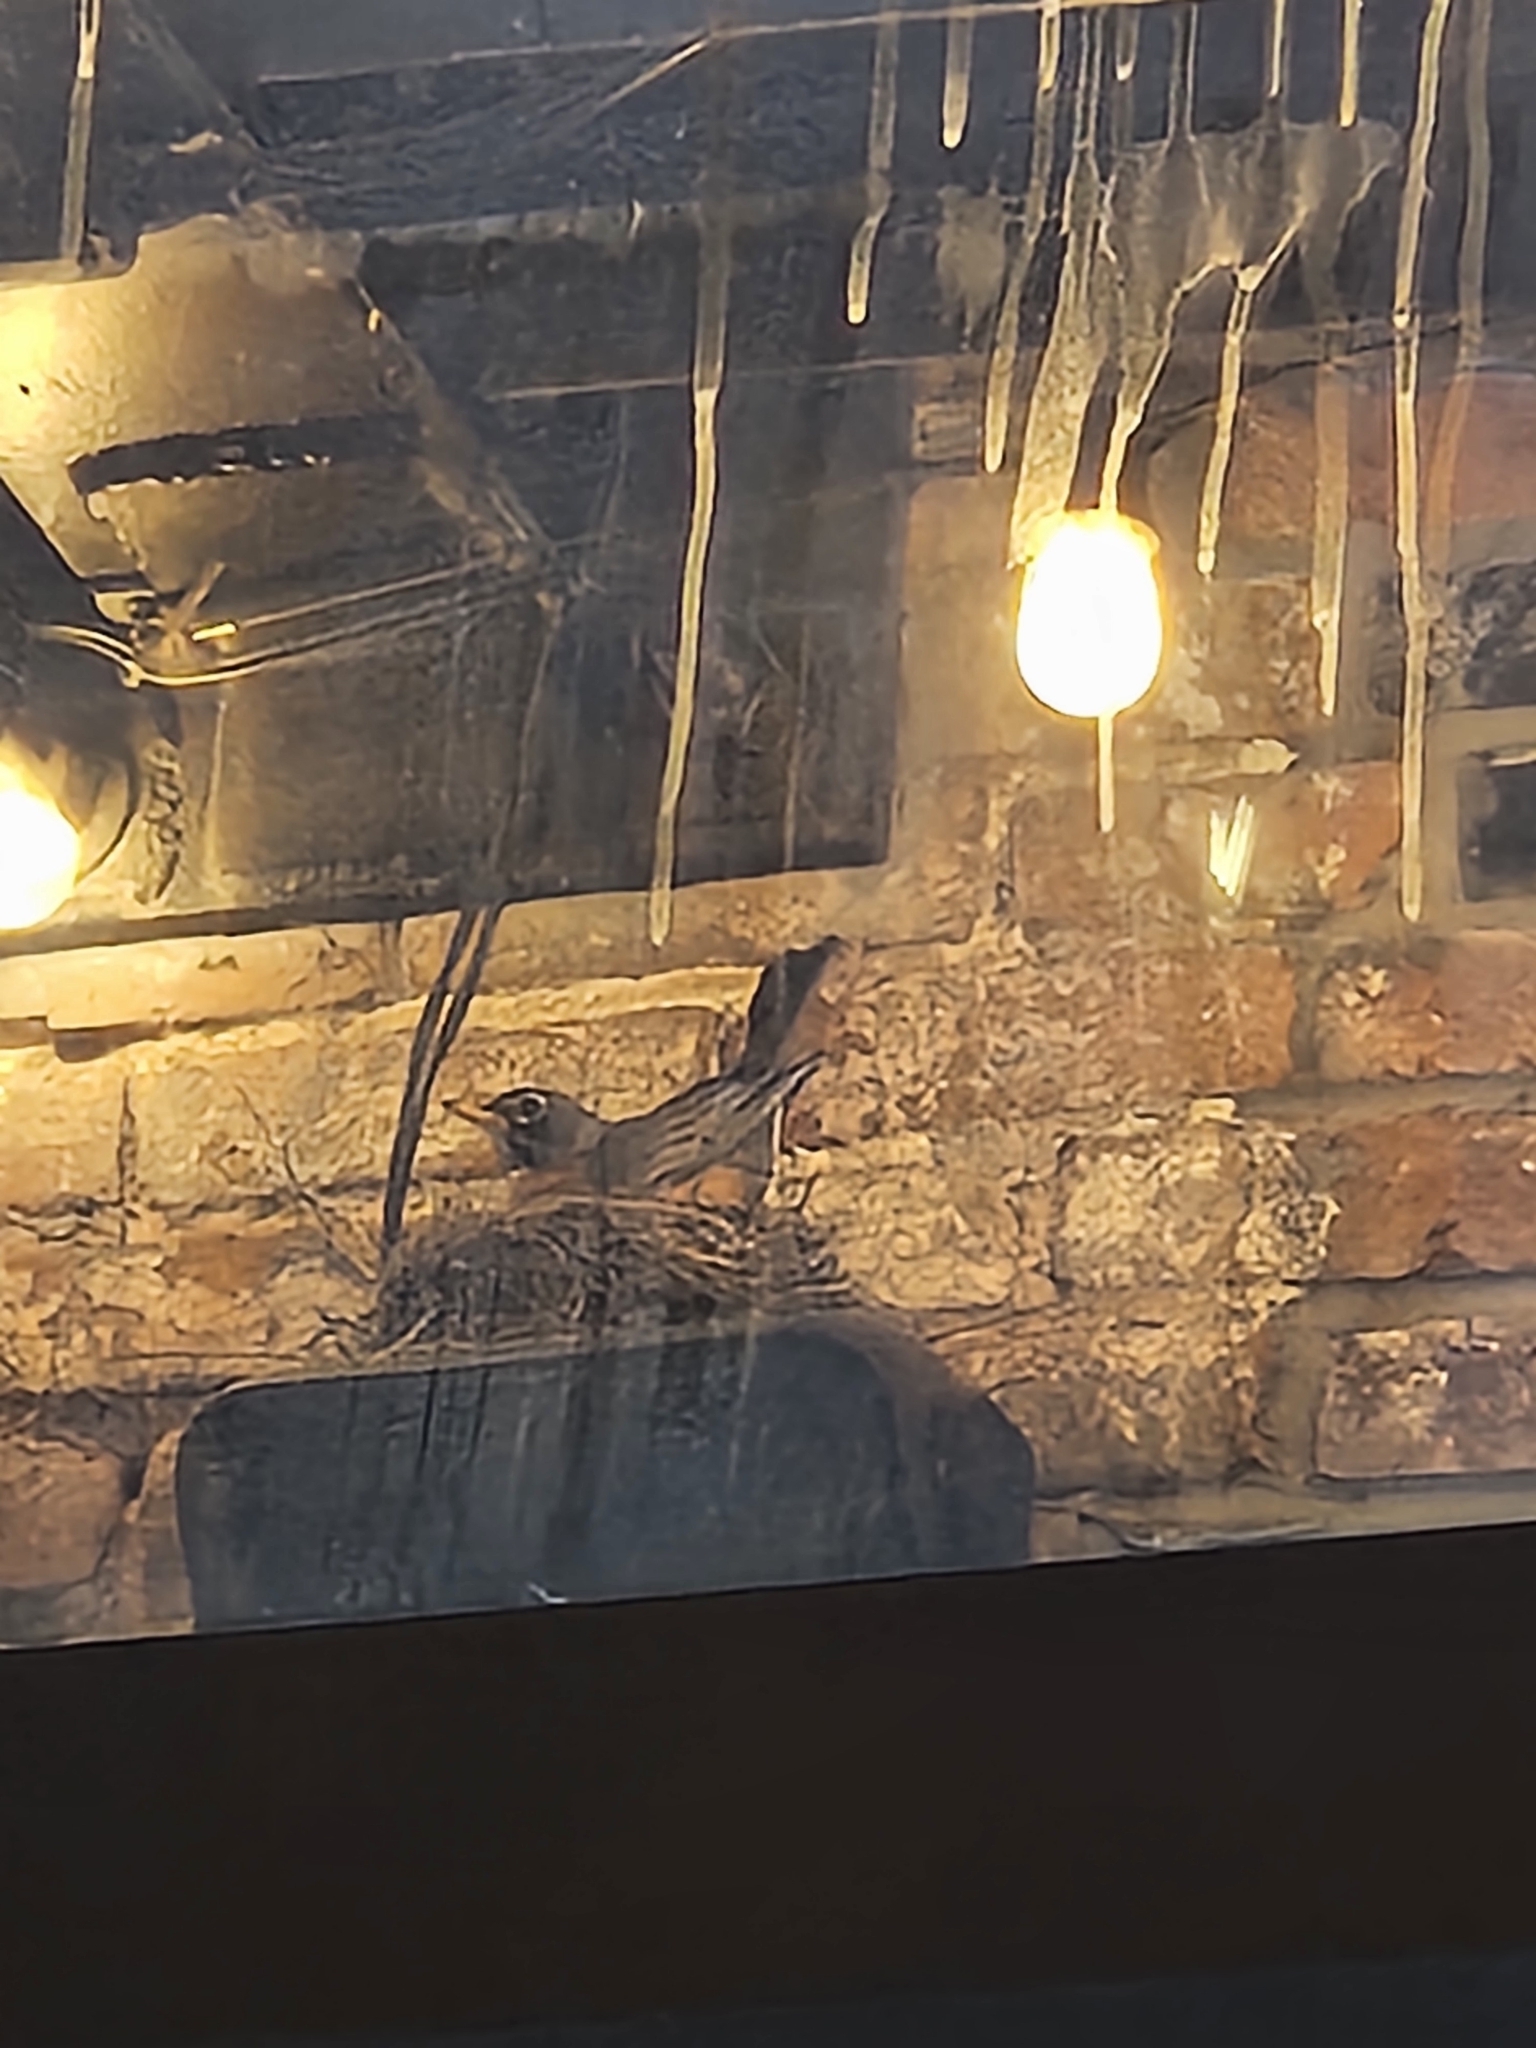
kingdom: Animalia
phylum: Chordata
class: Aves
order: Passeriformes
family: Turdidae
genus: Turdus
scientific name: Turdus migratorius
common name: American robin
